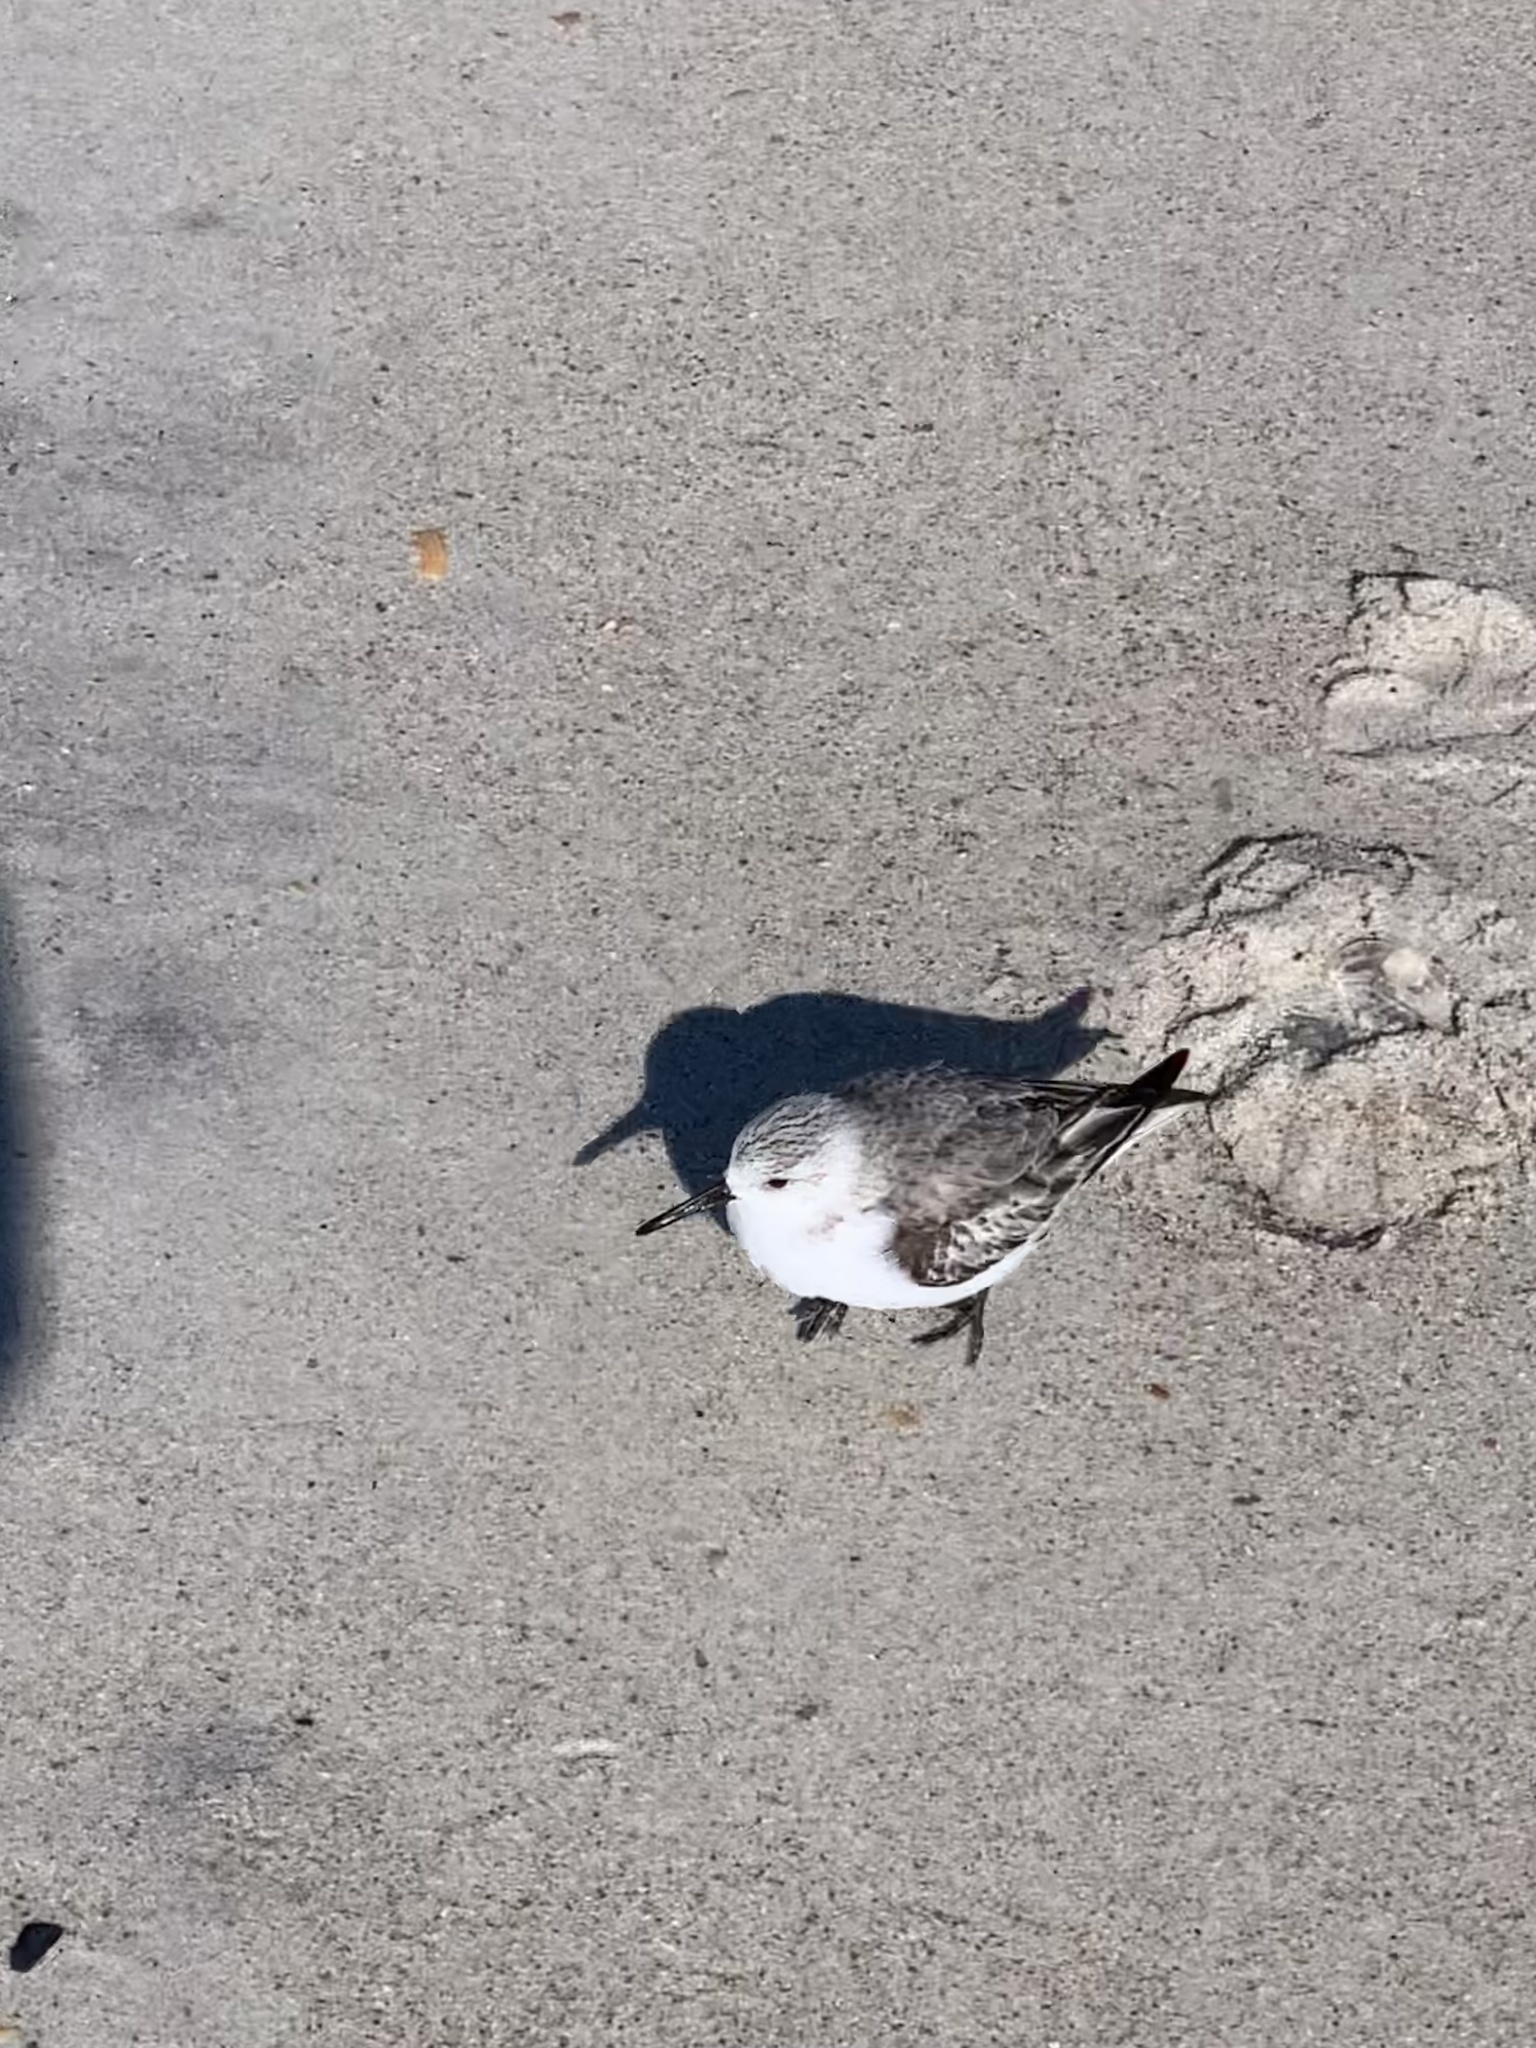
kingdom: Animalia
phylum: Chordata
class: Aves
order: Charadriiformes
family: Scolopacidae
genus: Calidris
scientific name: Calidris alba
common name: Sanderling
